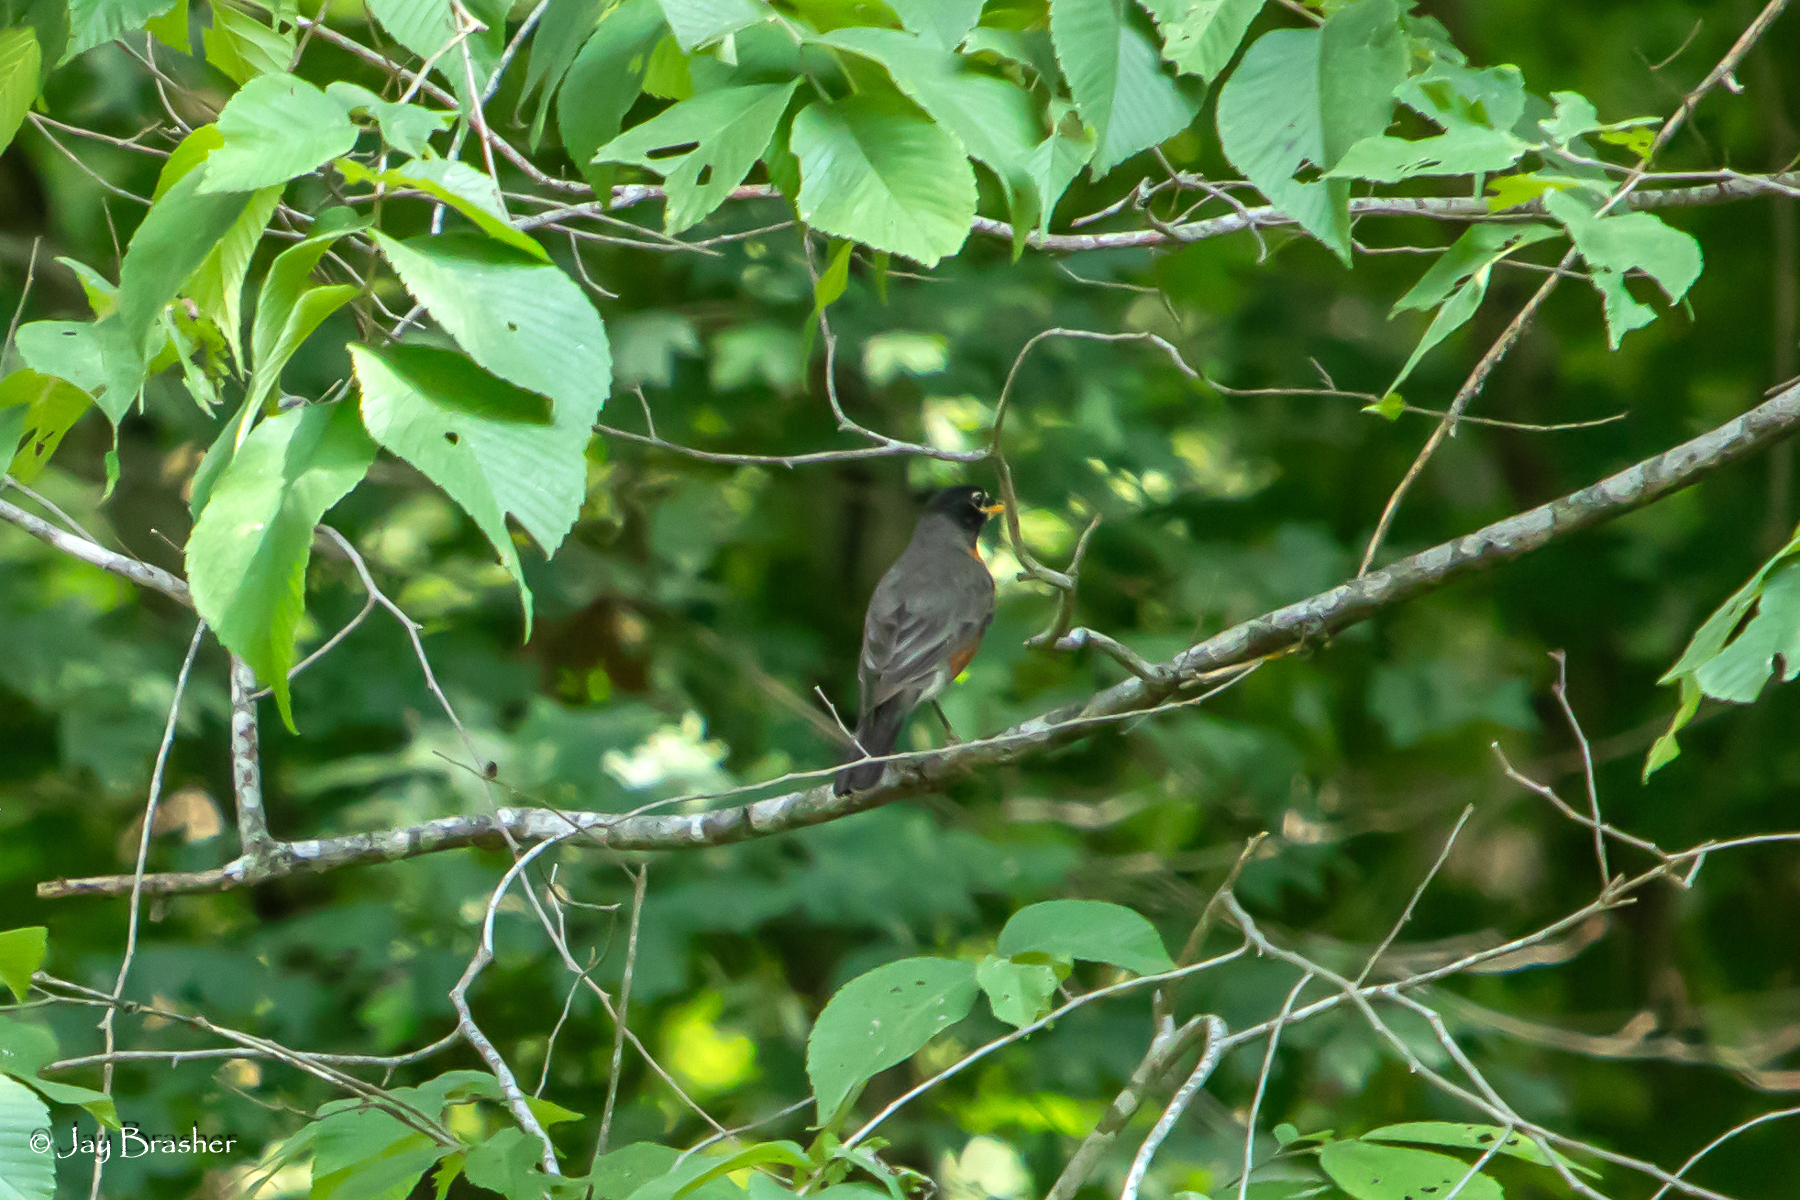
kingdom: Animalia
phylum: Chordata
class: Aves
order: Passeriformes
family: Turdidae
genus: Turdus
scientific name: Turdus migratorius
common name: American robin
